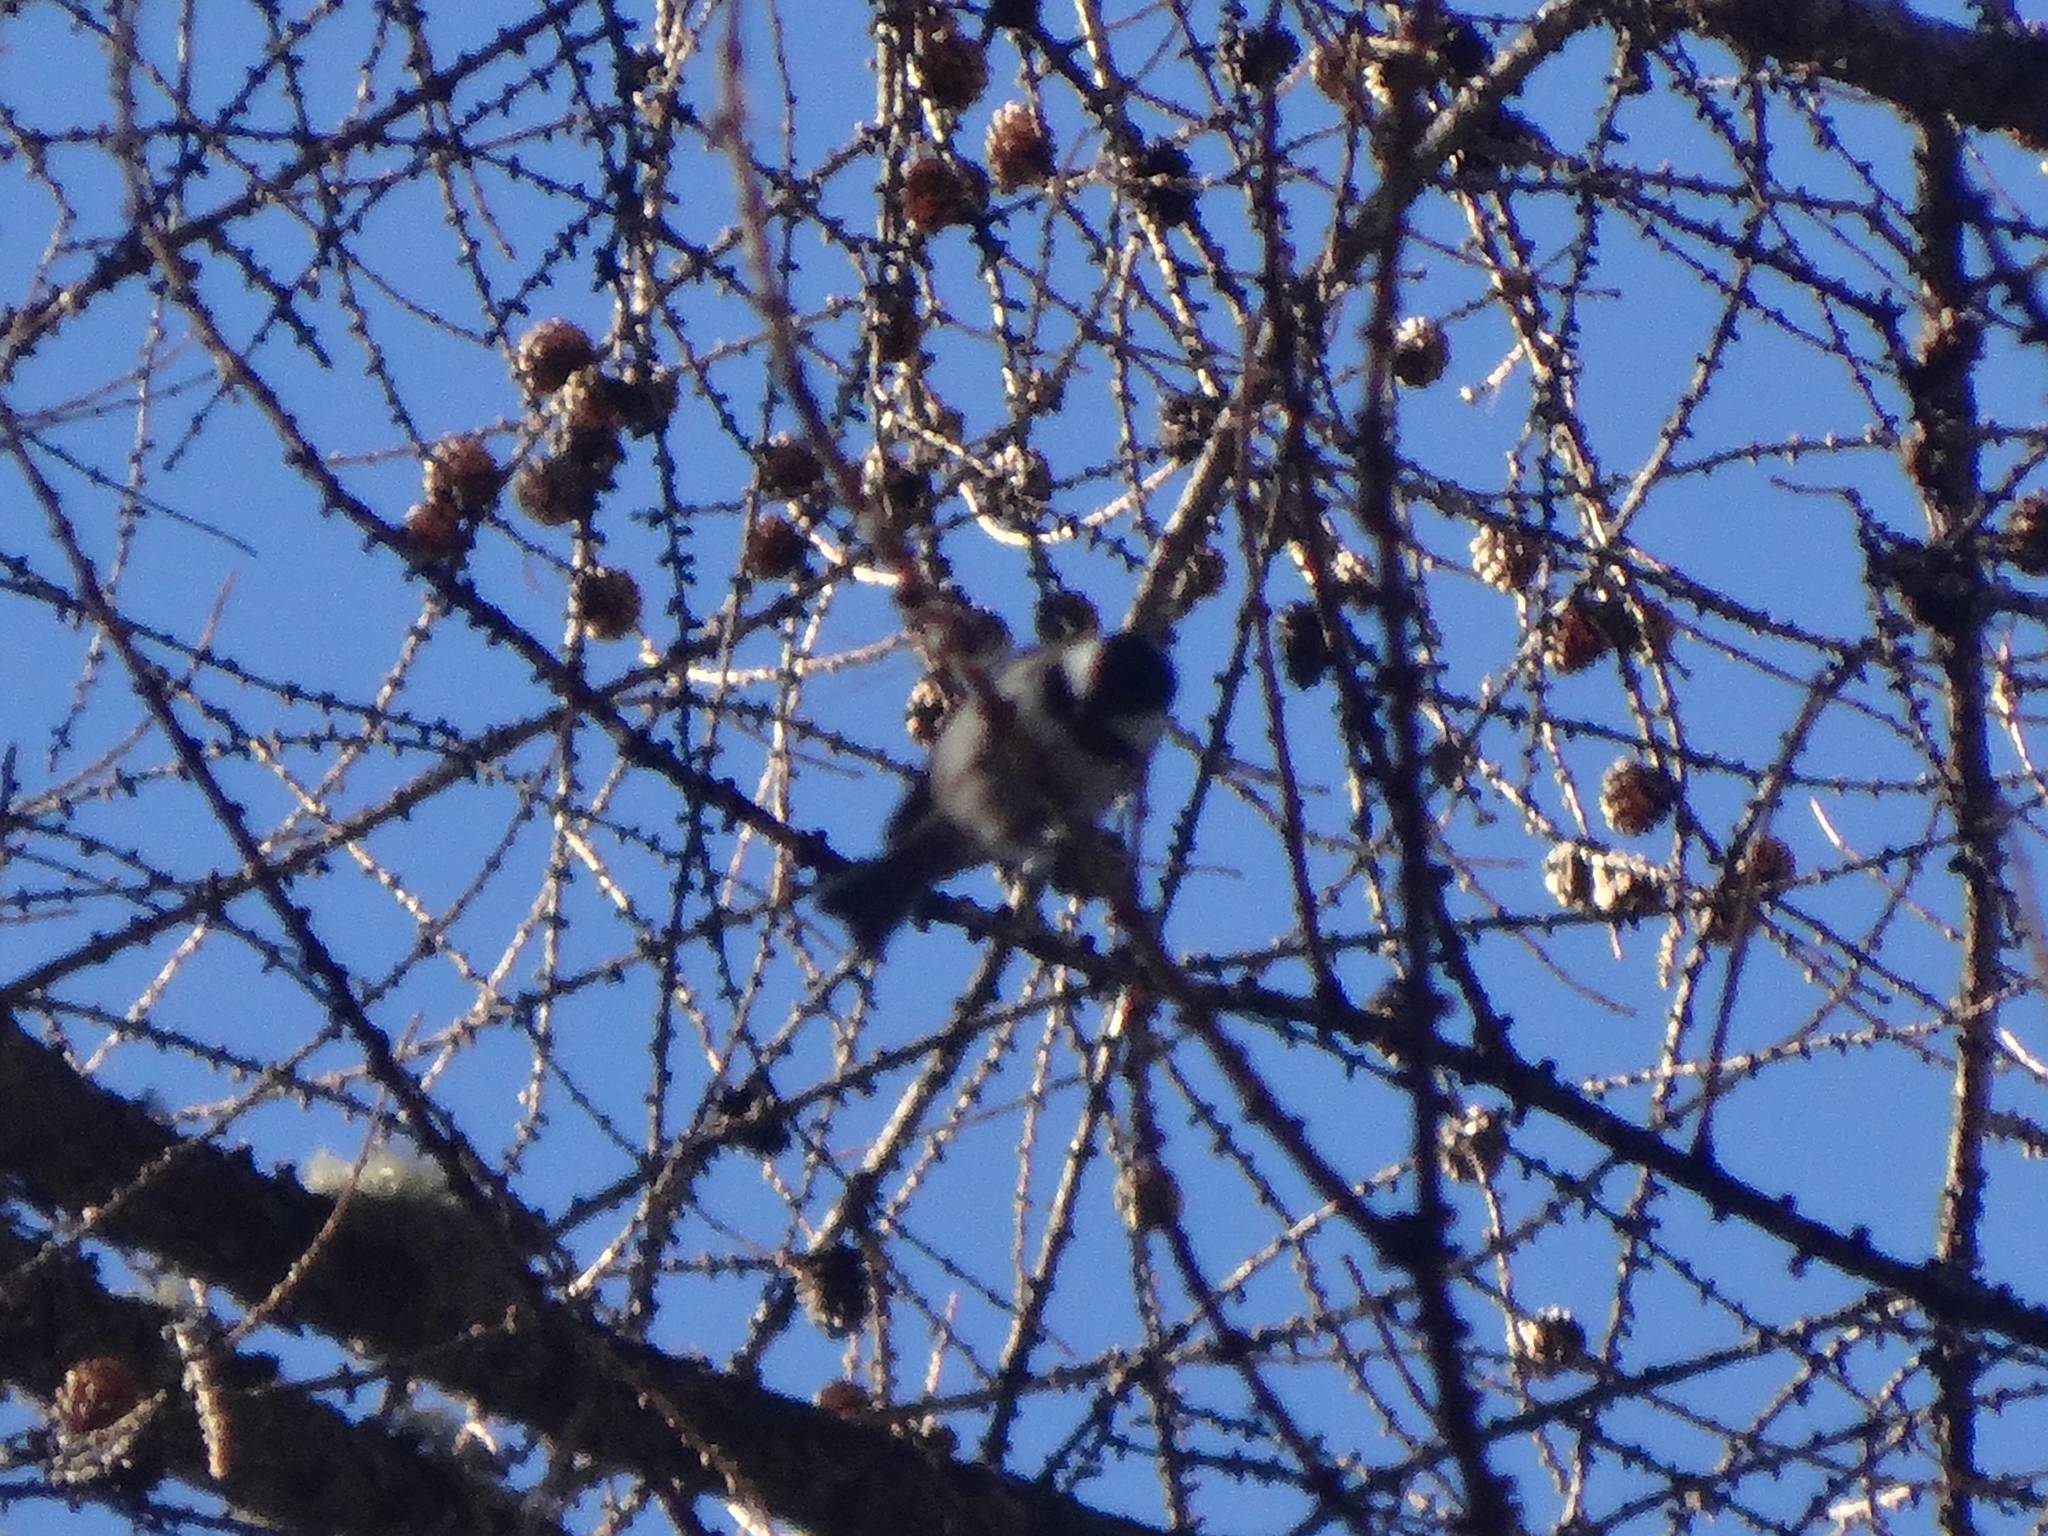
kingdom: Animalia
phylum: Chordata
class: Aves
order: Passeriformes
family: Paridae
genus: Periparus
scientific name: Periparus ater
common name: Coal tit
